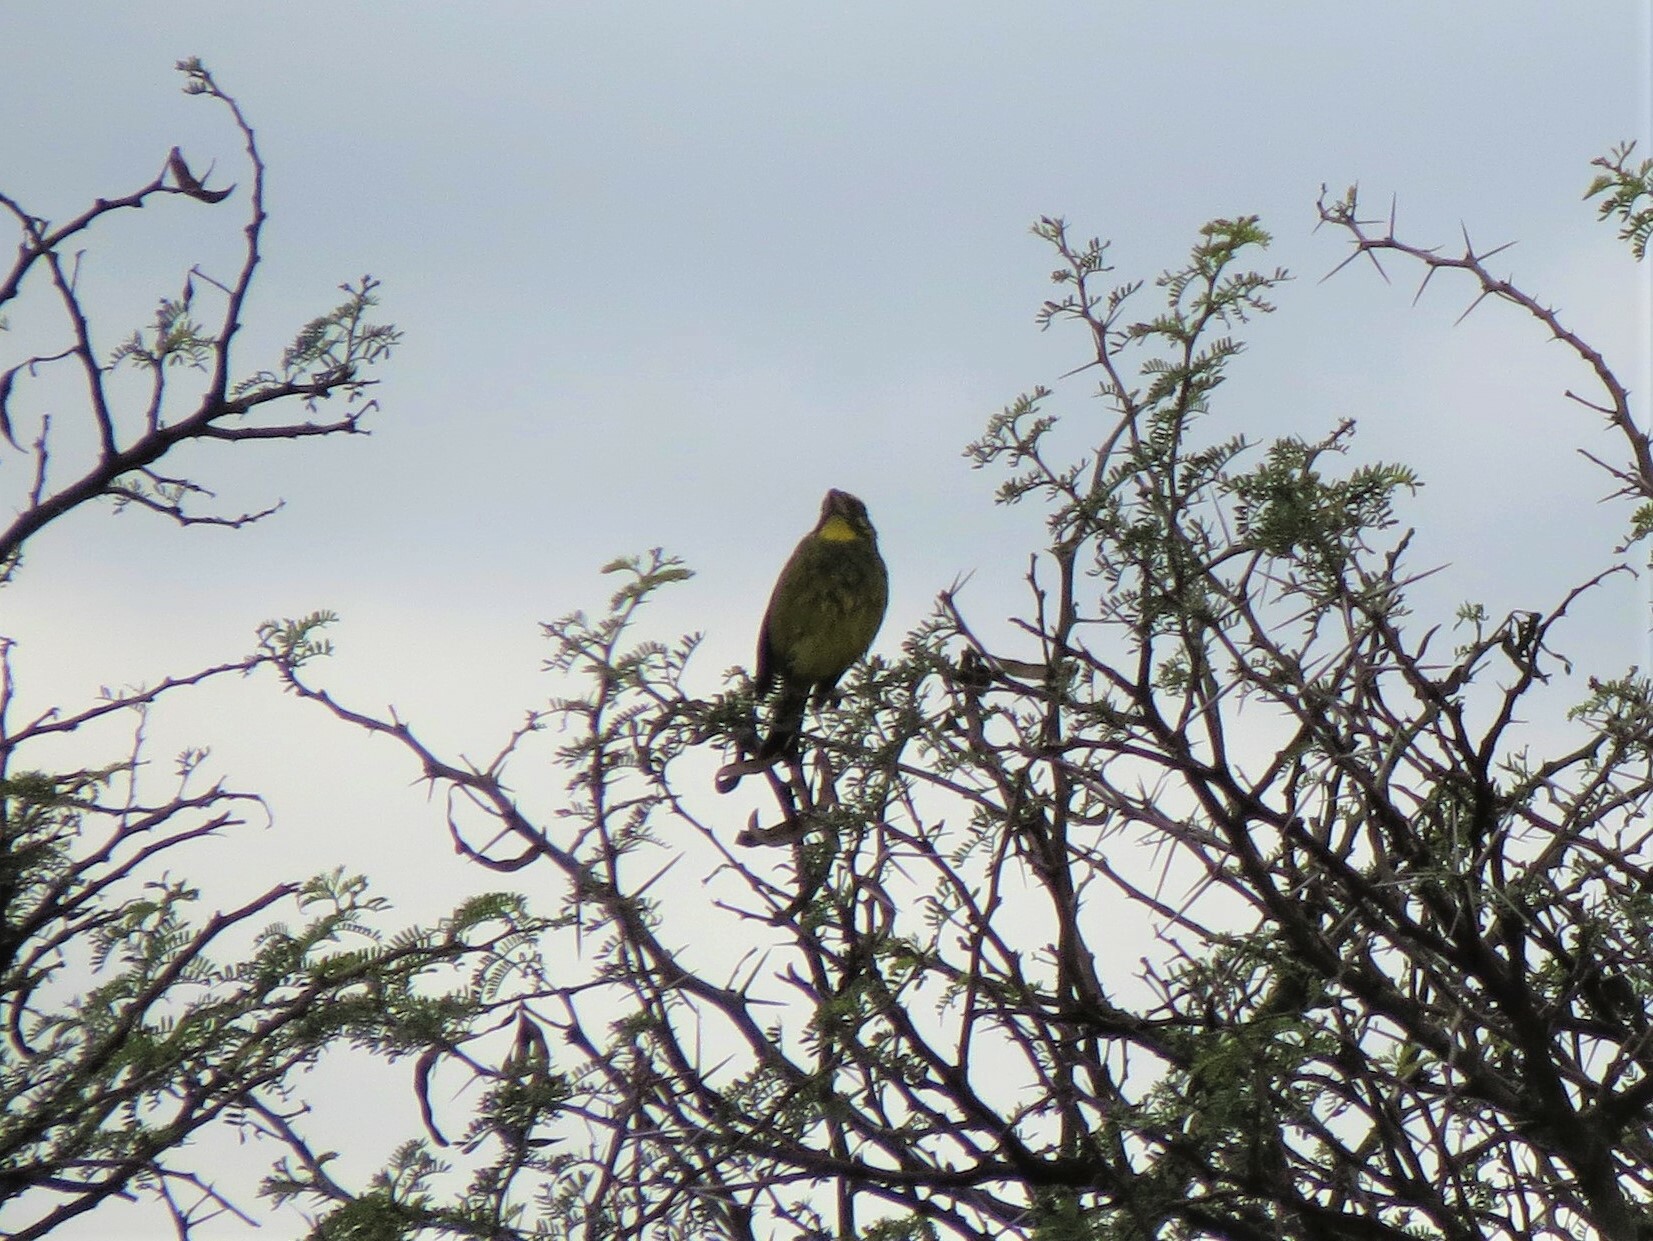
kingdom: Animalia
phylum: Chordata
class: Aves
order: Passeriformes
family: Fringillidae
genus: Crithagra
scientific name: Crithagra sulphurata
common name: Brimstone canary
